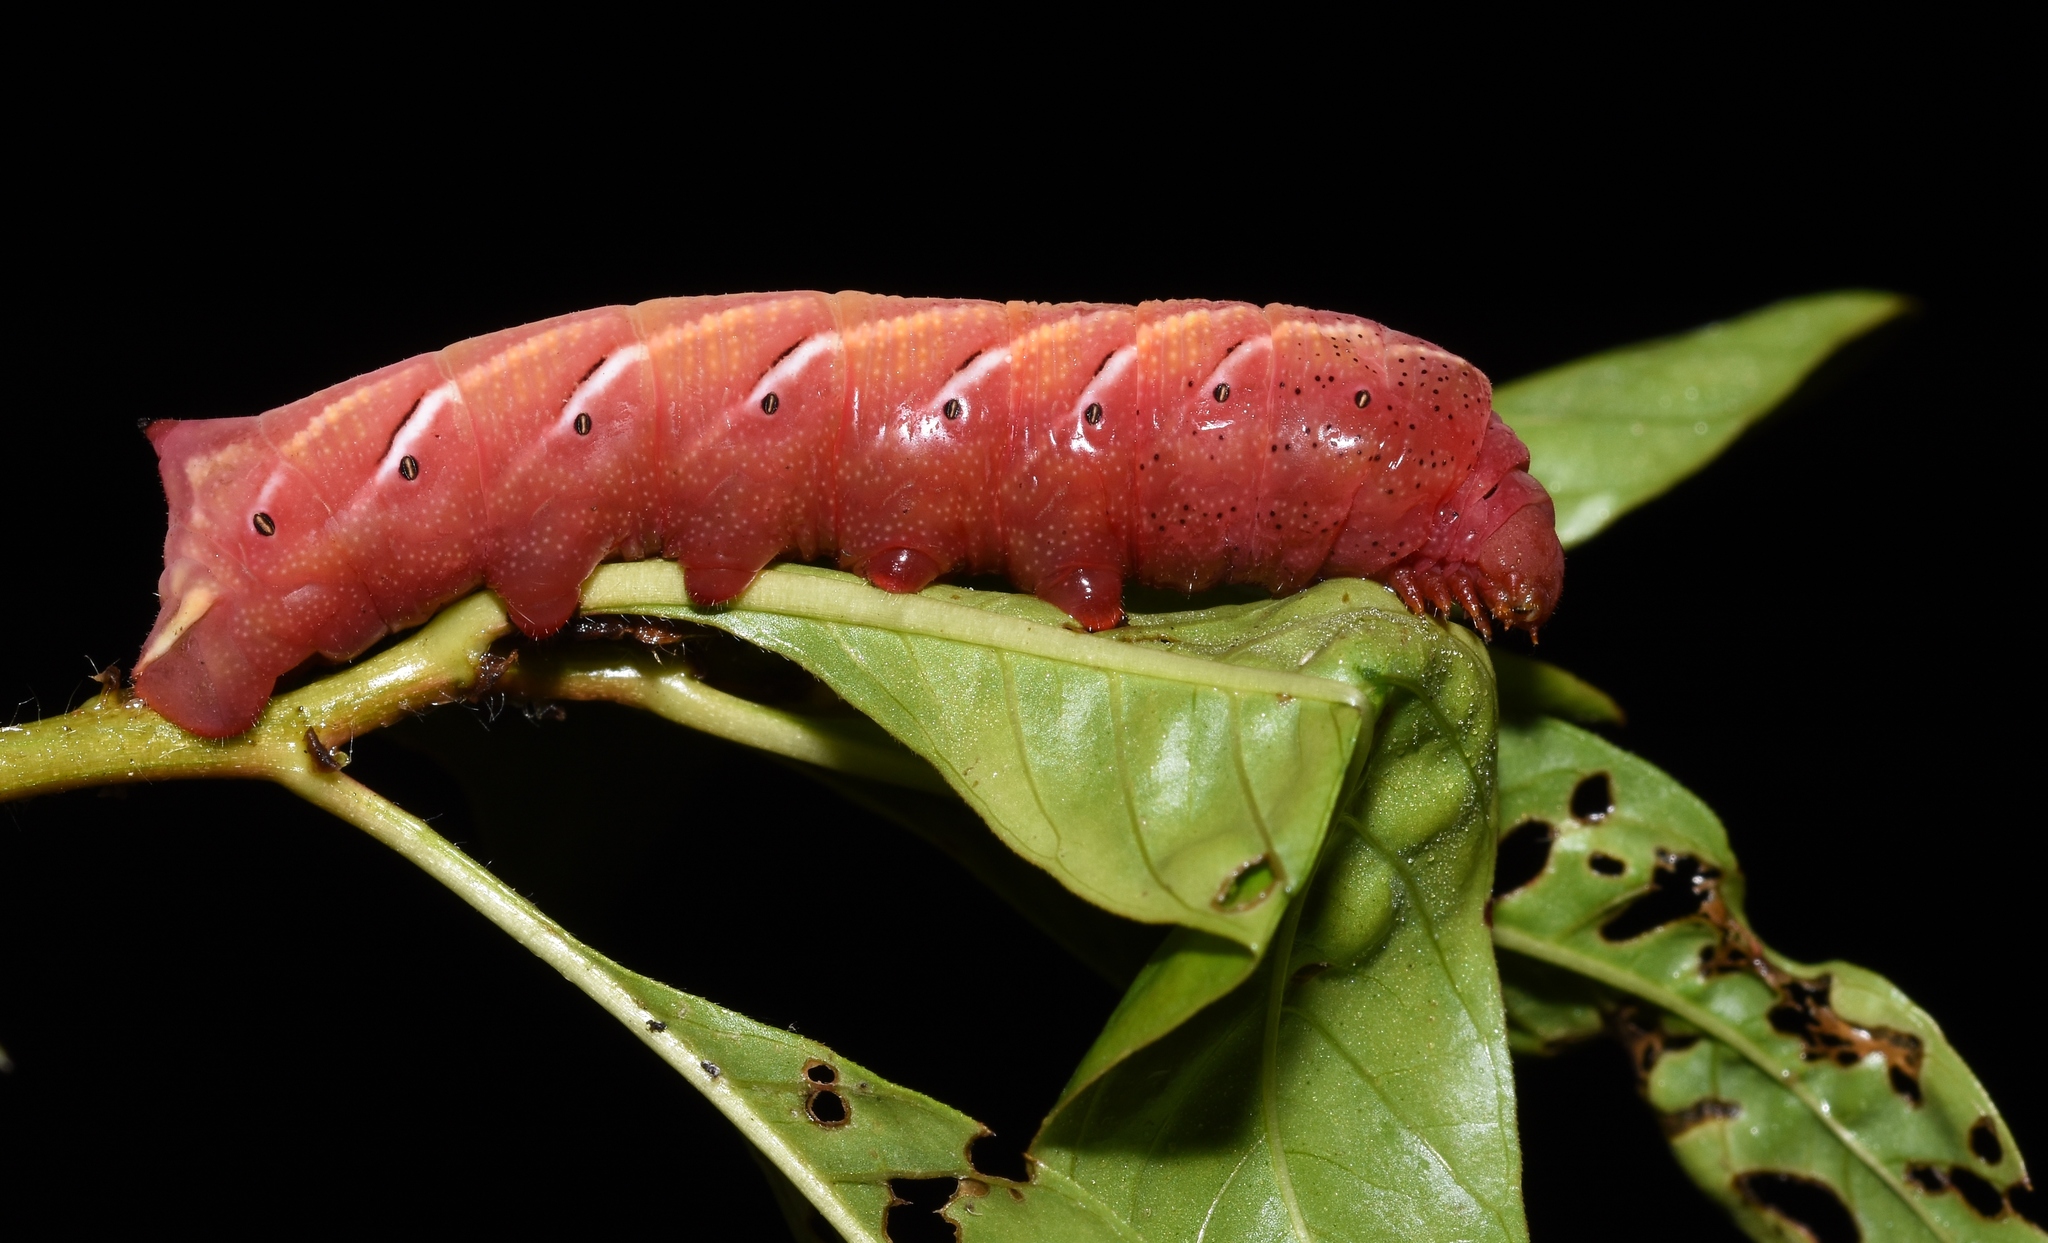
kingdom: Animalia
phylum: Arthropoda
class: Insecta
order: Lepidoptera
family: Sphingidae
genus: Eumorpha
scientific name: Eumorpha fasciatus
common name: Banded sphinx
